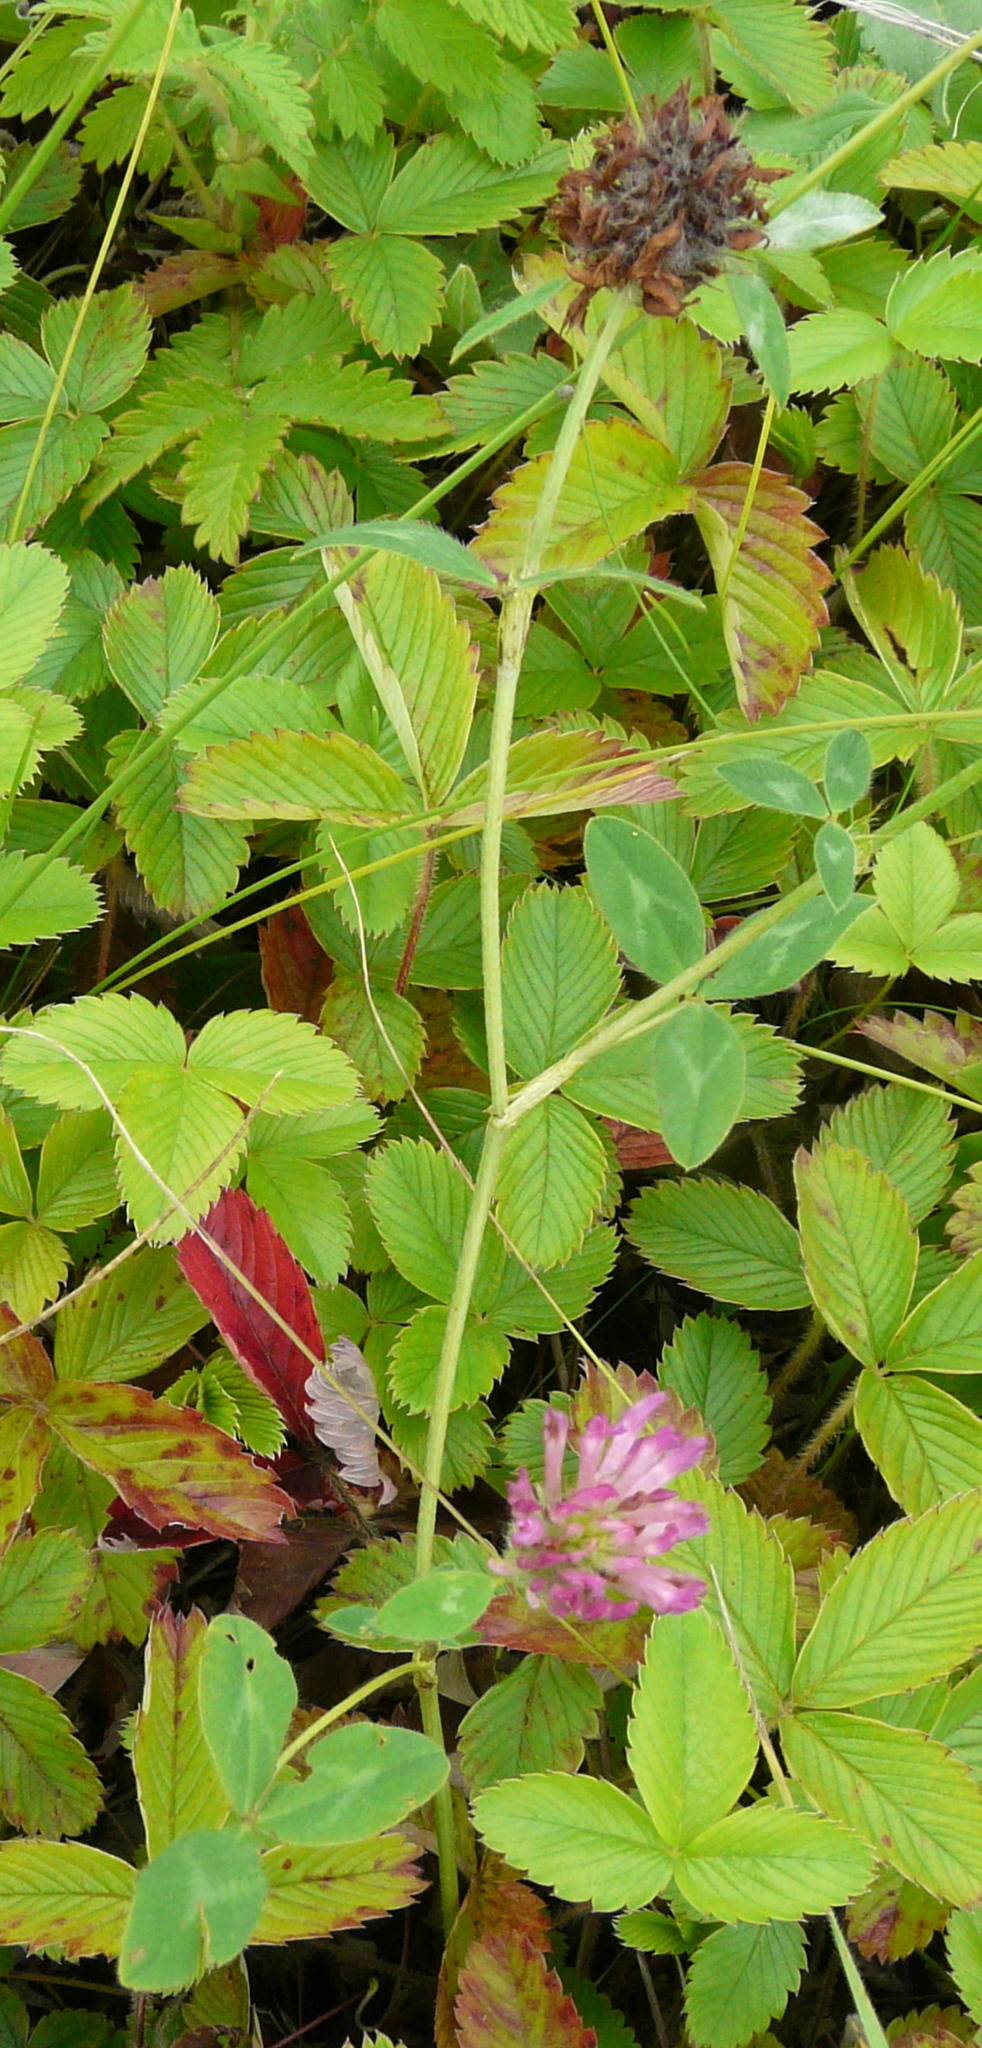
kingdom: Plantae
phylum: Tracheophyta
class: Magnoliopsida
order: Fabales
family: Fabaceae
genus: Trifolium
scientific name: Trifolium pratense
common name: Red clover
